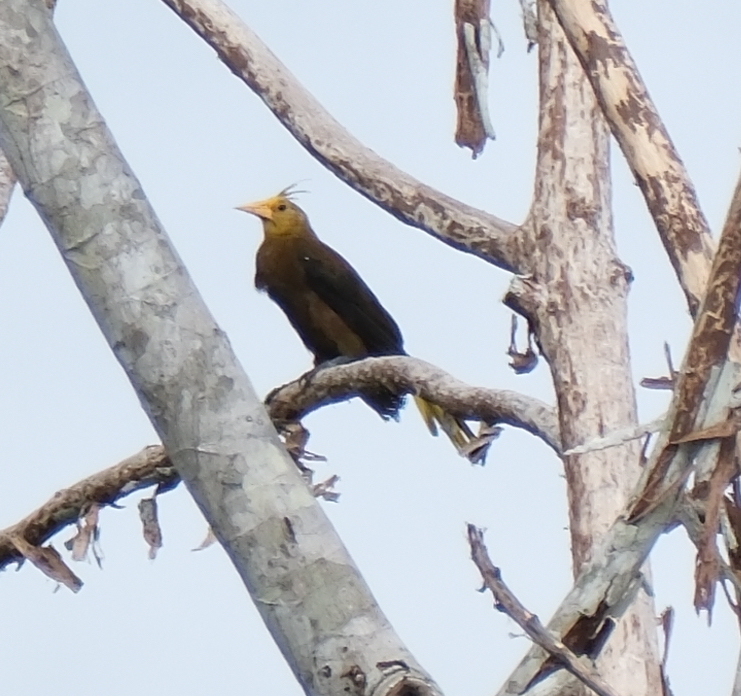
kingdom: Animalia
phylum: Chordata
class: Aves
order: Passeriformes
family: Icteridae
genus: Psarocolius
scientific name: Psarocolius angustifrons
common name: Russet-backed oropendola
